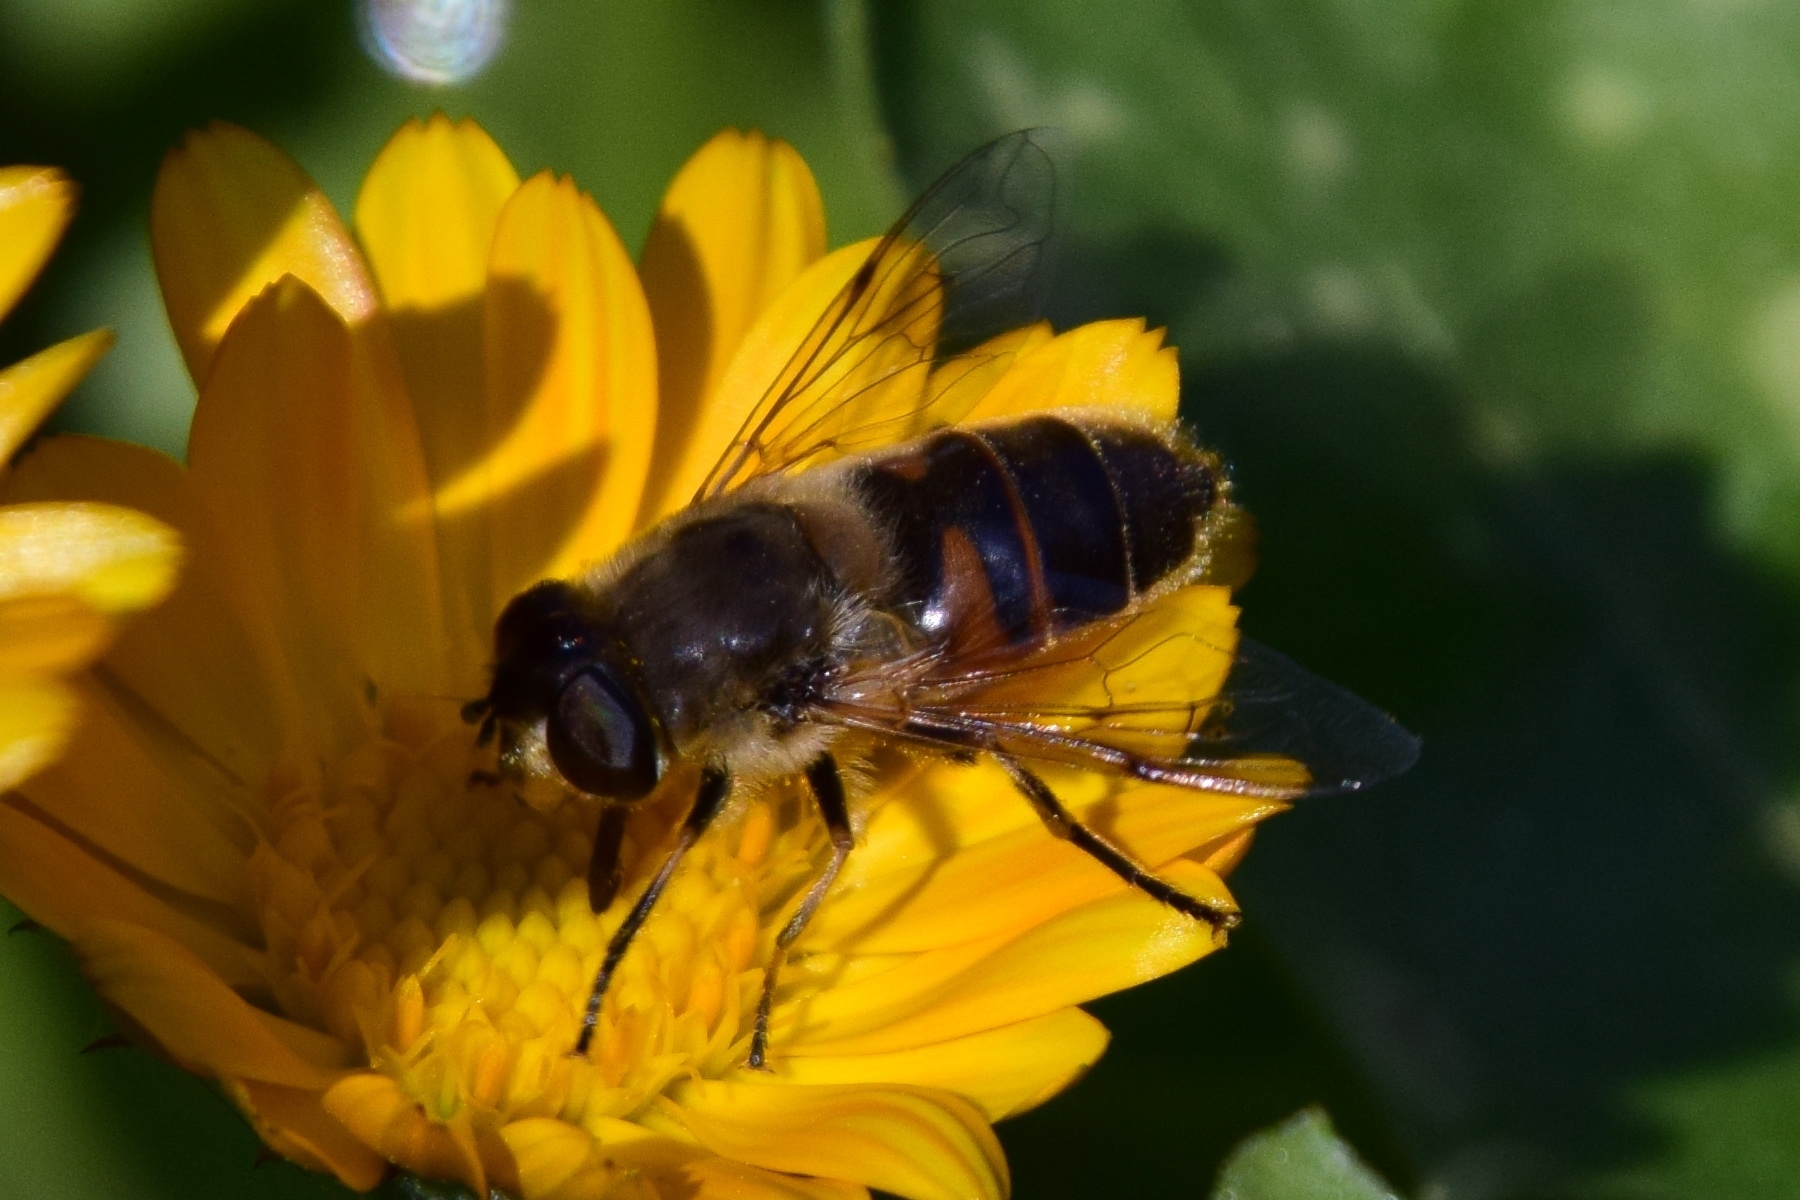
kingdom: Animalia
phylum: Arthropoda
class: Insecta
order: Diptera
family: Syrphidae
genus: Eristalis
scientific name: Eristalis tenax
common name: Drone fly
